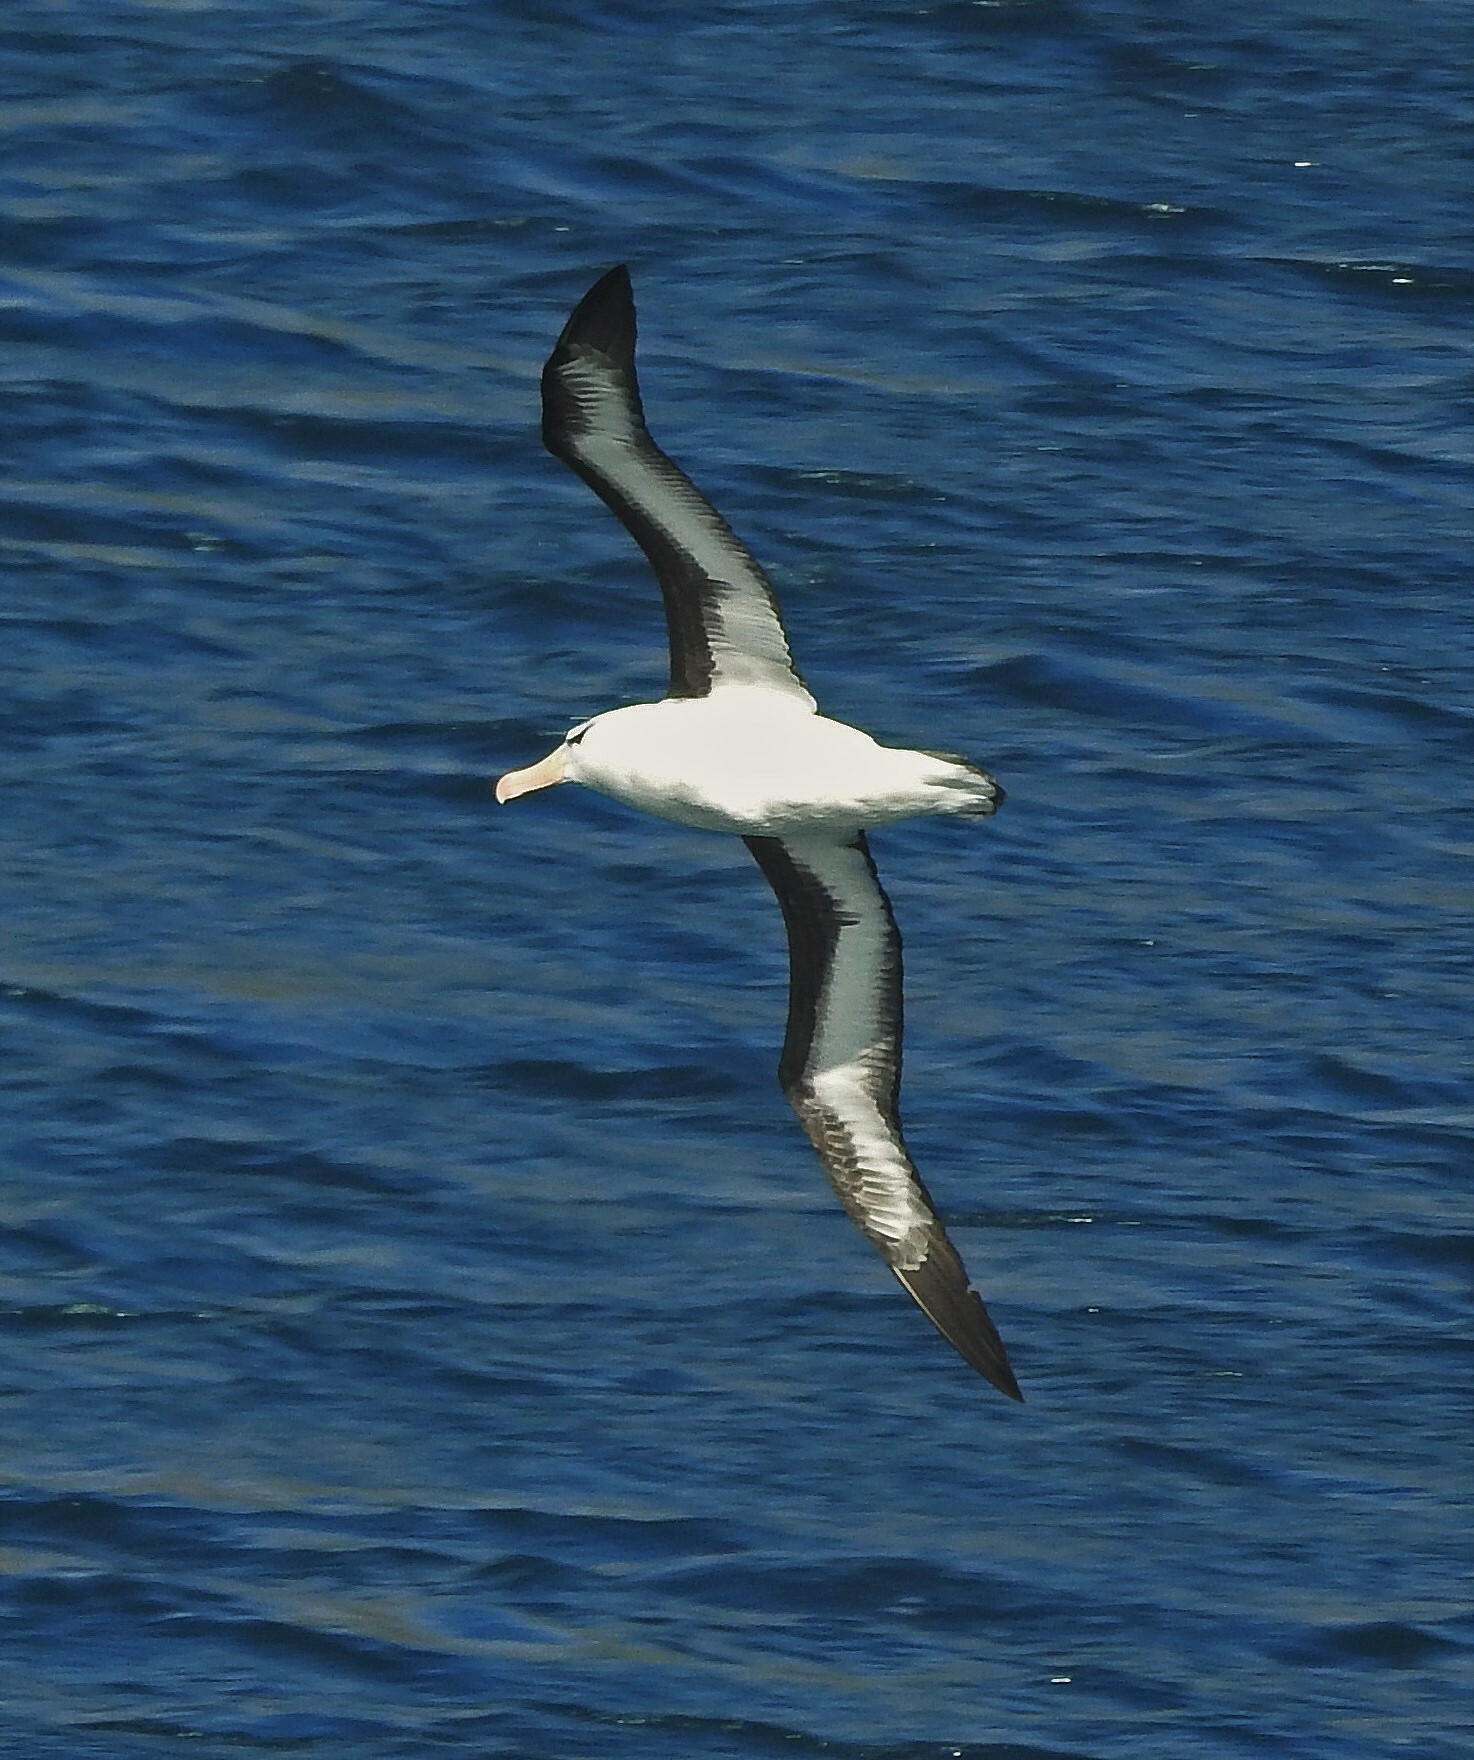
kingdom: Animalia
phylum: Chordata
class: Aves
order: Procellariiformes
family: Diomedeidae
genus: Thalassarche
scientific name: Thalassarche melanophris
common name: Black-browed albatross
